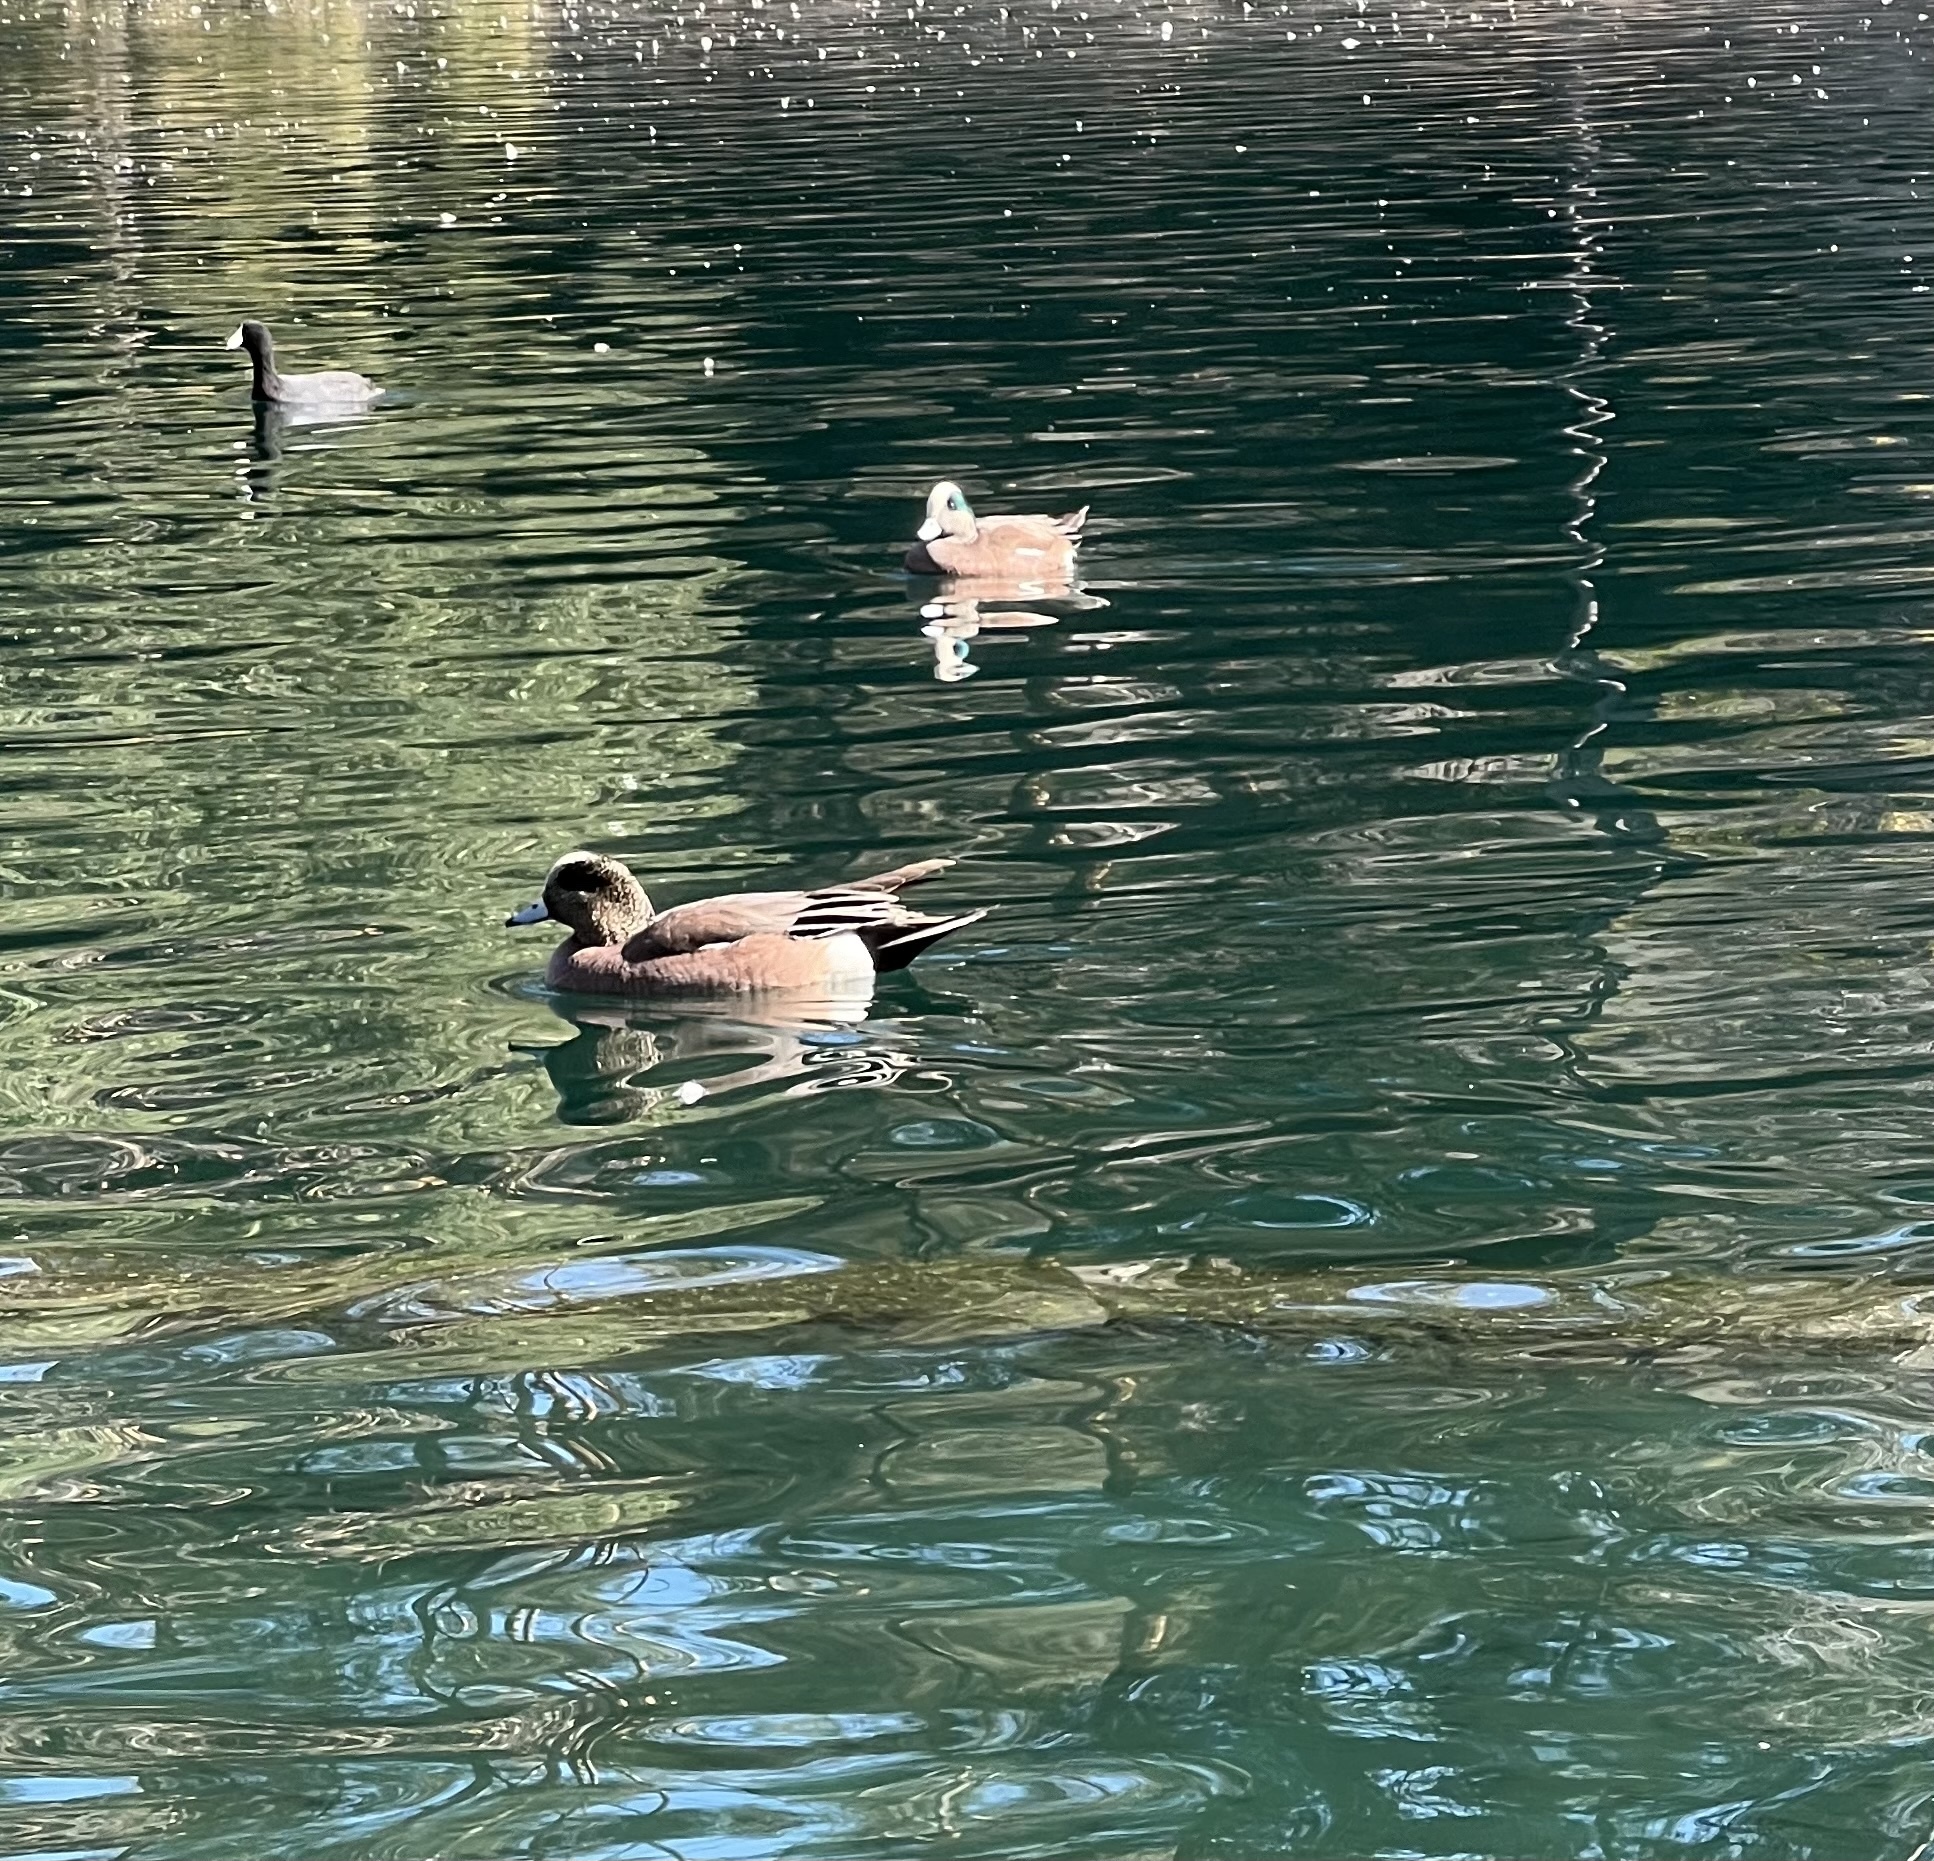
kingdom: Animalia
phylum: Chordata
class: Aves
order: Anseriformes
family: Anatidae
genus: Mareca
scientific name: Mareca americana
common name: American wigeon
